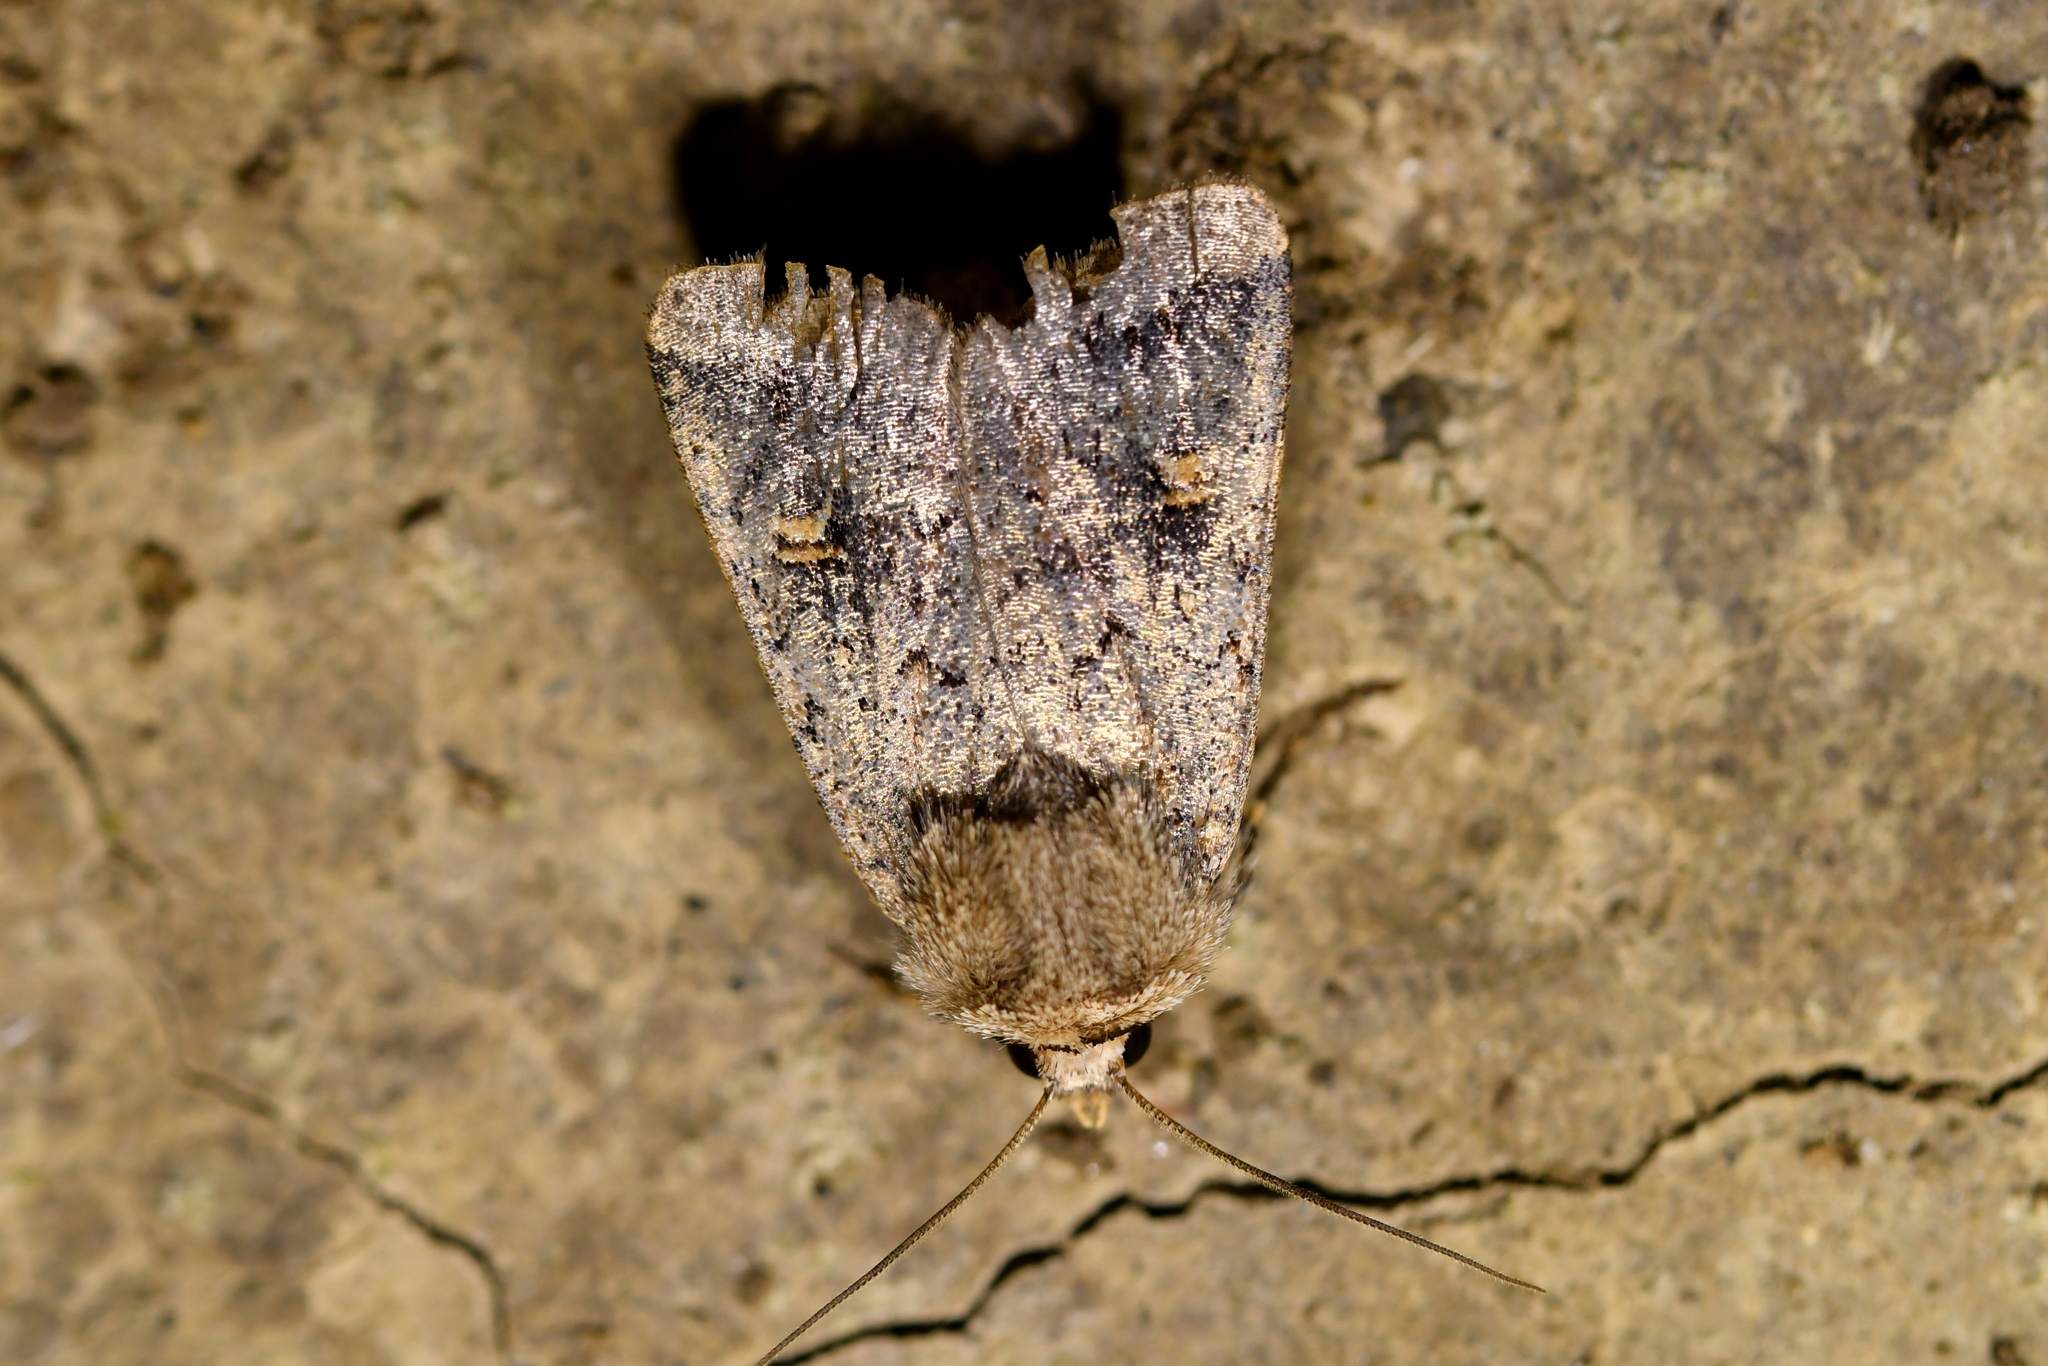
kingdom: Animalia
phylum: Arthropoda
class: Insecta
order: Lepidoptera
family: Noctuidae
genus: Proteuxoa
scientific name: Proteuxoa tetronycha
